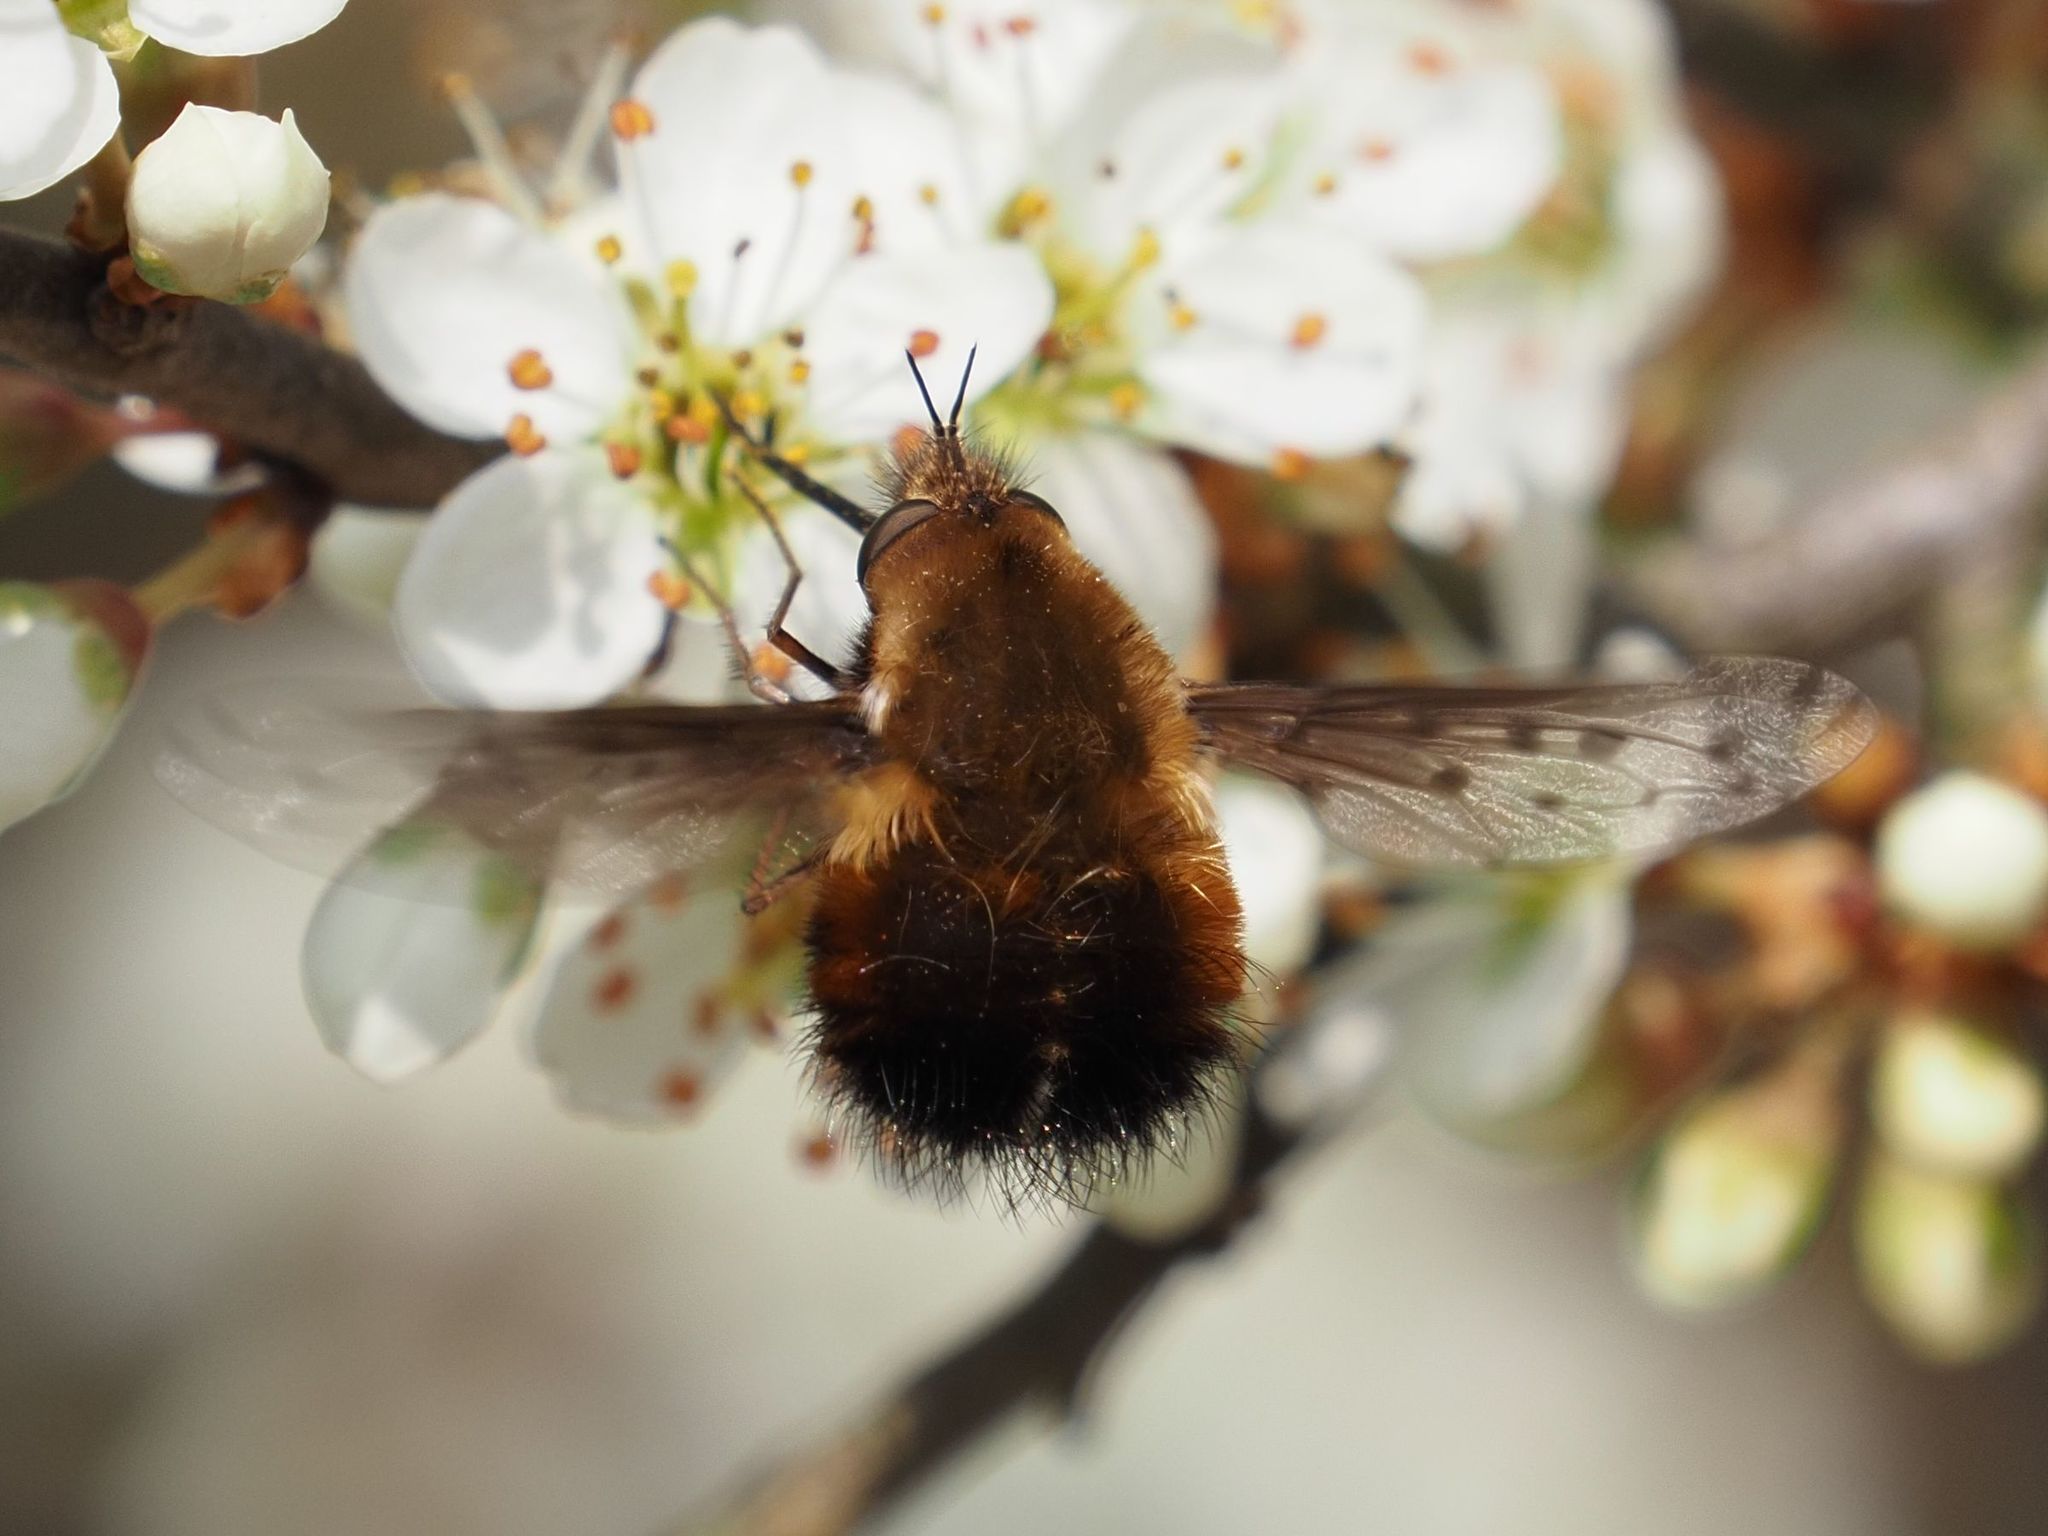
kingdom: Animalia
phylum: Arthropoda
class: Insecta
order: Diptera
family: Bombyliidae
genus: Bombylius
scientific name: Bombylius discolor
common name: Dotted bee-fly
